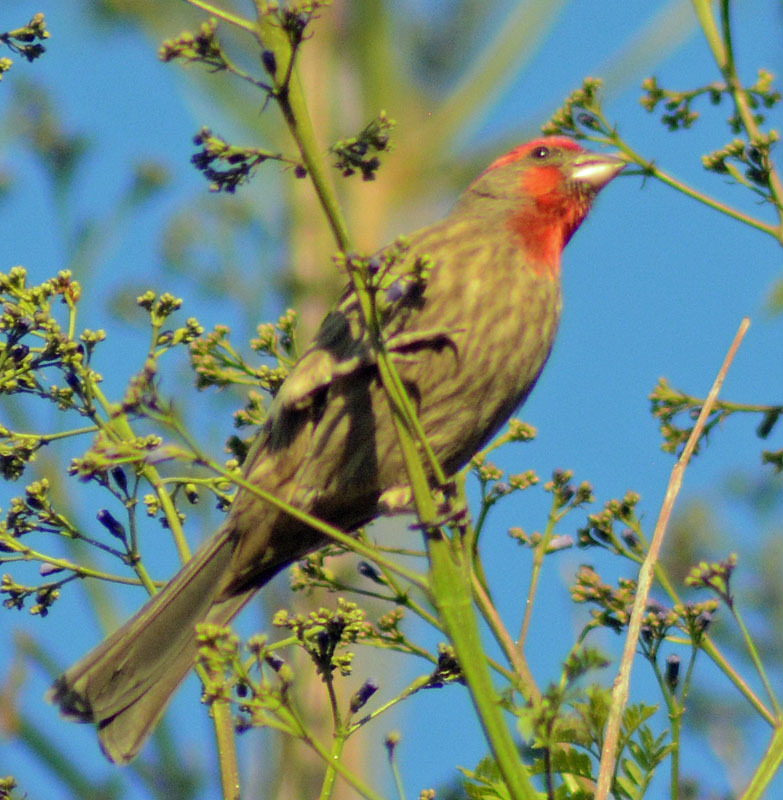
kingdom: Animalia
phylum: Chordata
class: Aves
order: Passeriformes
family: Fringillidae
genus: Haemorhous
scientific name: Haemorhous mexicanus
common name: House finch
